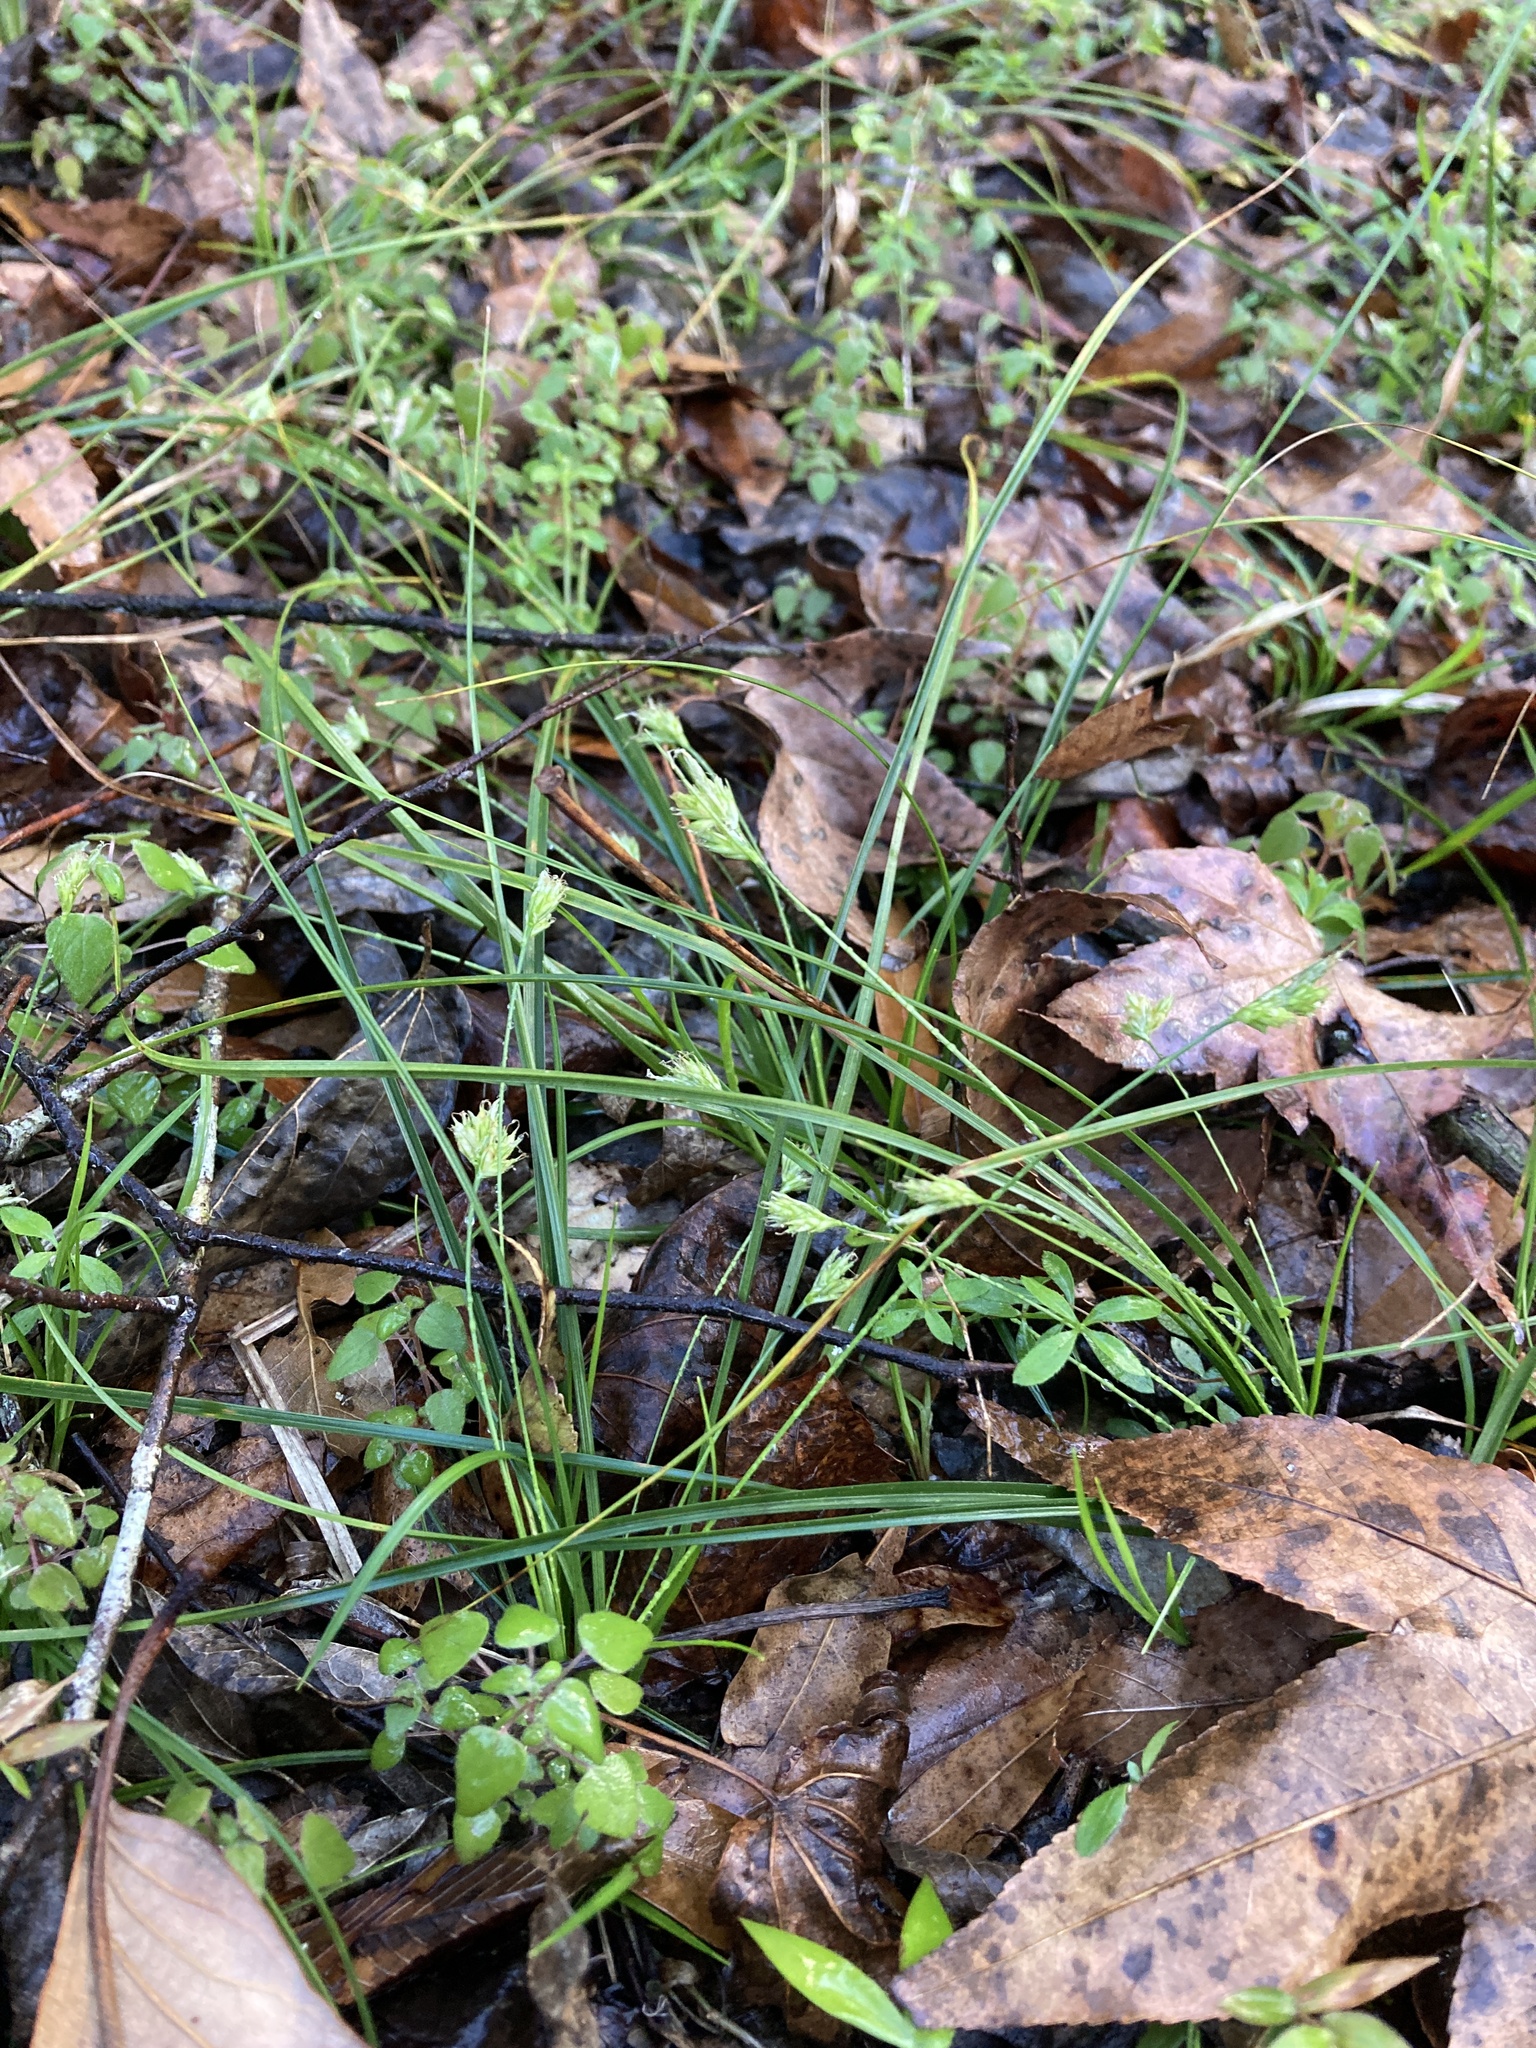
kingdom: Plantae
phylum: Tracheophyta
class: Liliopsida
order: Poales
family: Cyperaceae
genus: Carex
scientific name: Carex floridana
